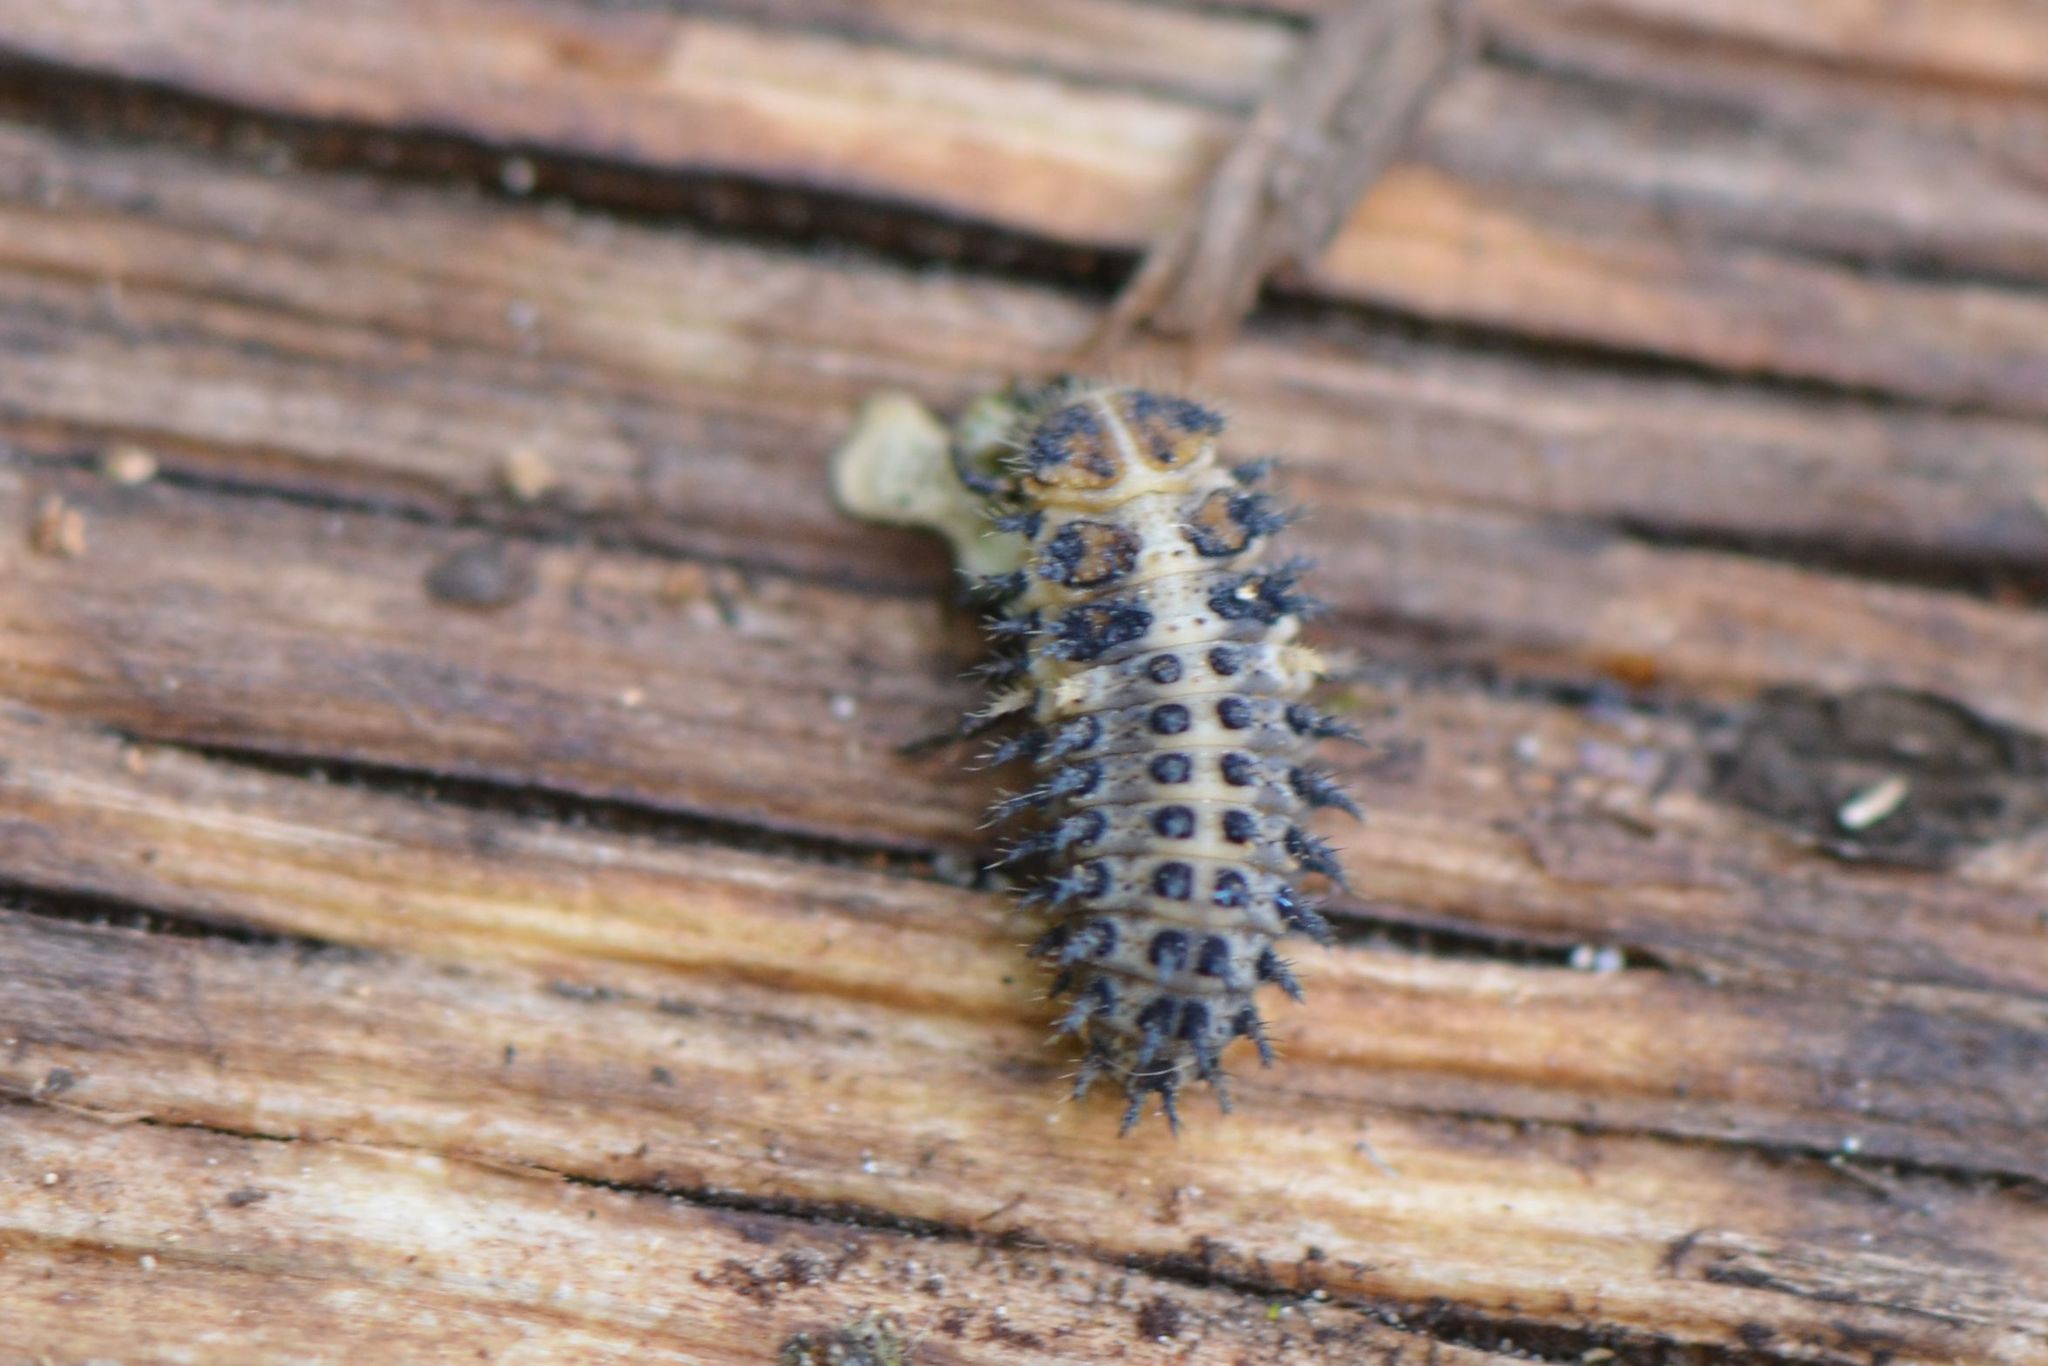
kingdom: Animalia
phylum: Arthropoda
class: Insecta
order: Coleoptera
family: Coccinellidae
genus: Brumus
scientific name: Brumus quadripustulatus
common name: Ladybird beetle
